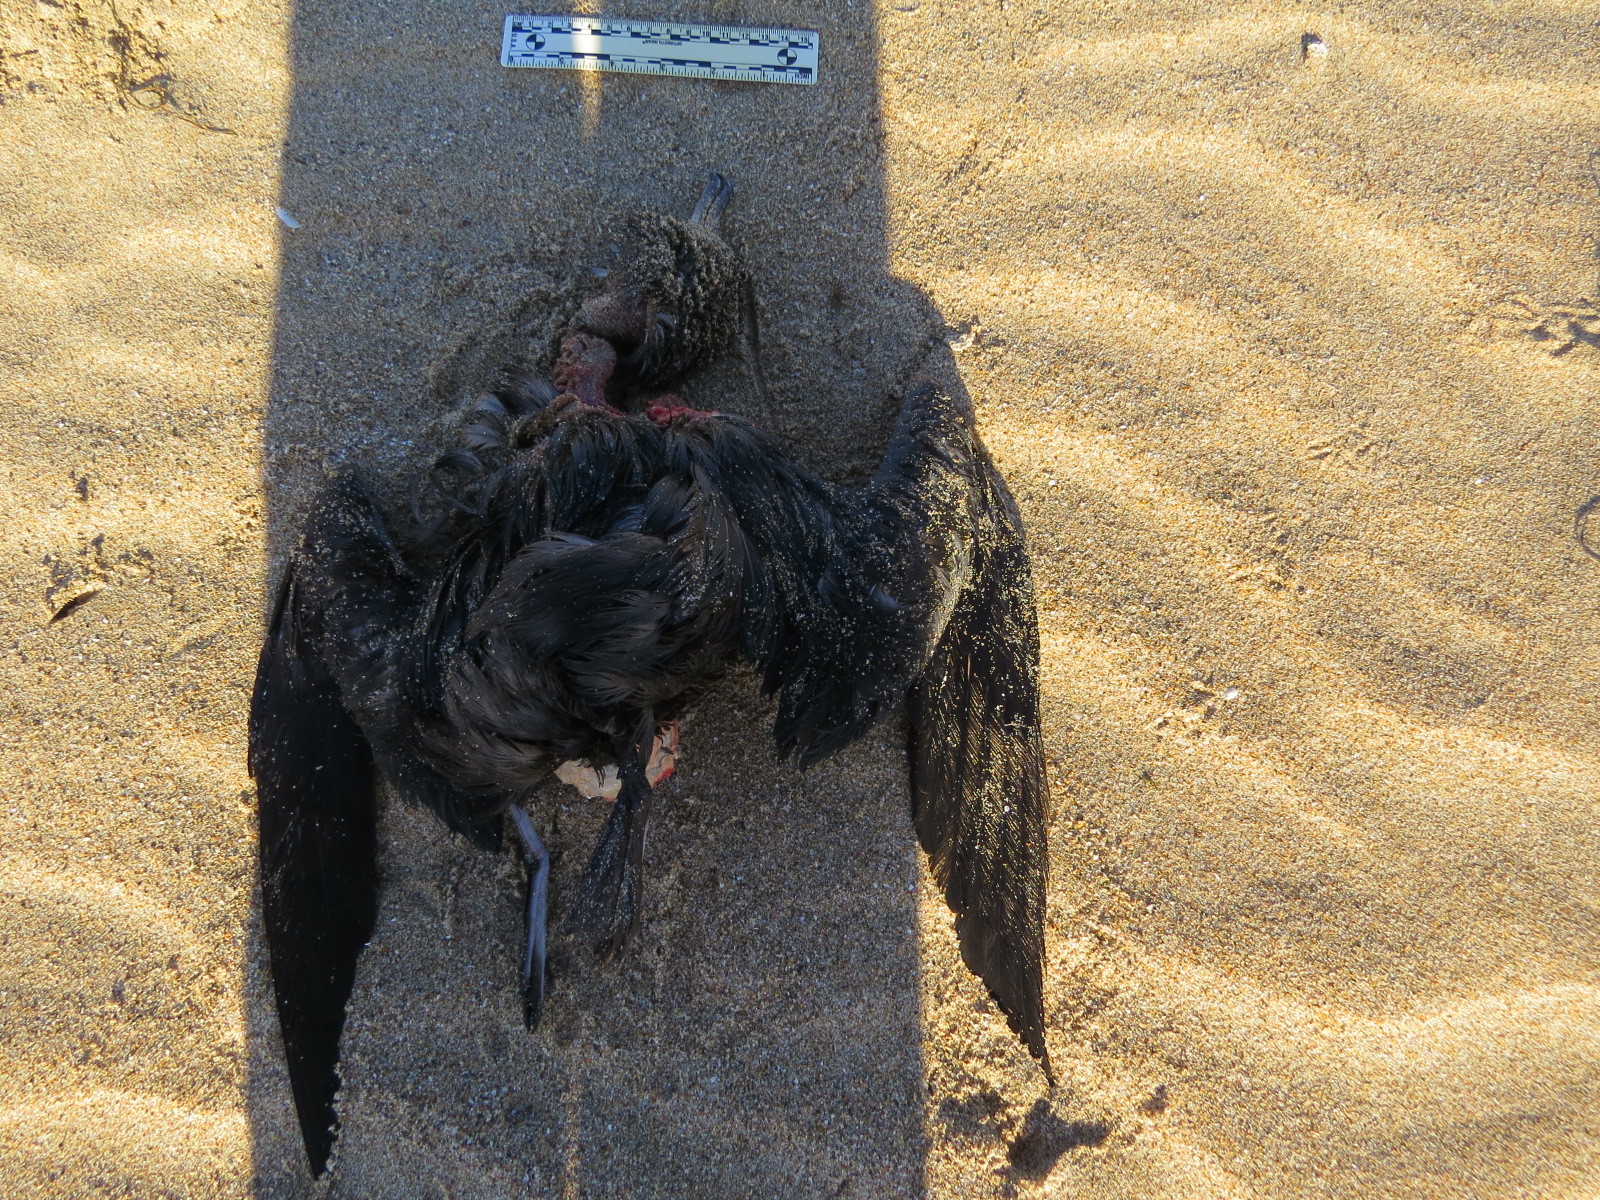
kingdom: Animalia
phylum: Chordata
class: Aves
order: Procellariiformes
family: Procellariidae
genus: Puffinus
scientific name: Puffinus griseus
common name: Sooty shearwater
